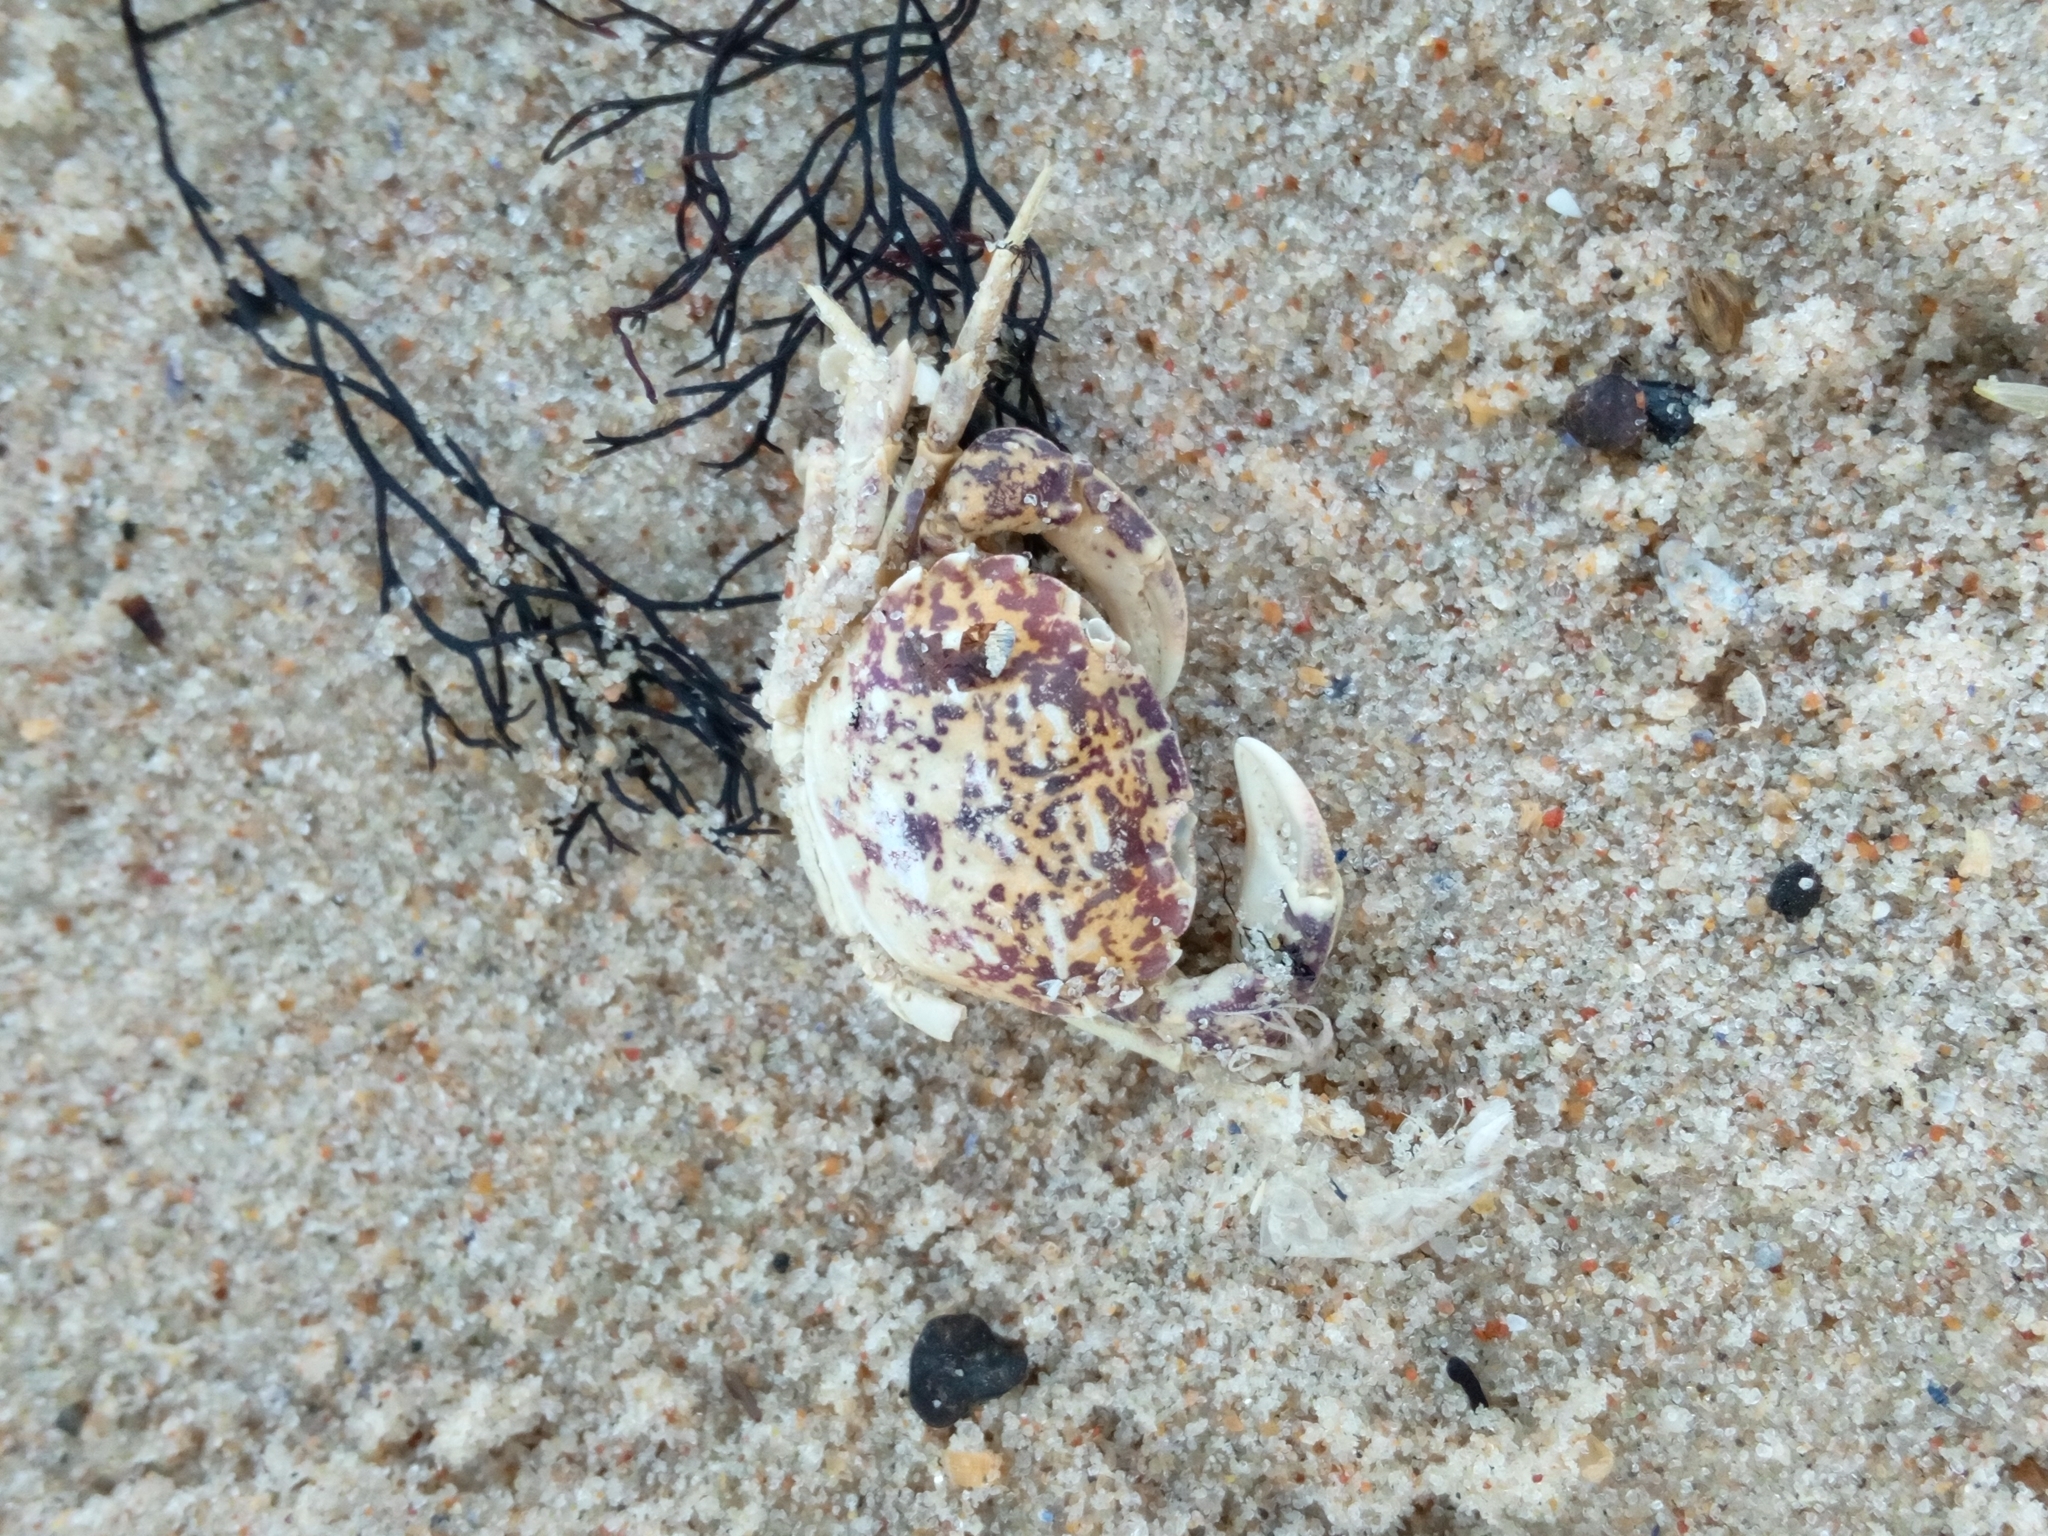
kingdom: Animalia
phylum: Arthropoda
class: Malacostraca
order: Decapoda
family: Panopeidae
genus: Rhithropanopeus
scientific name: Rhithropanopeus harrisii
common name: Dwarf crab
